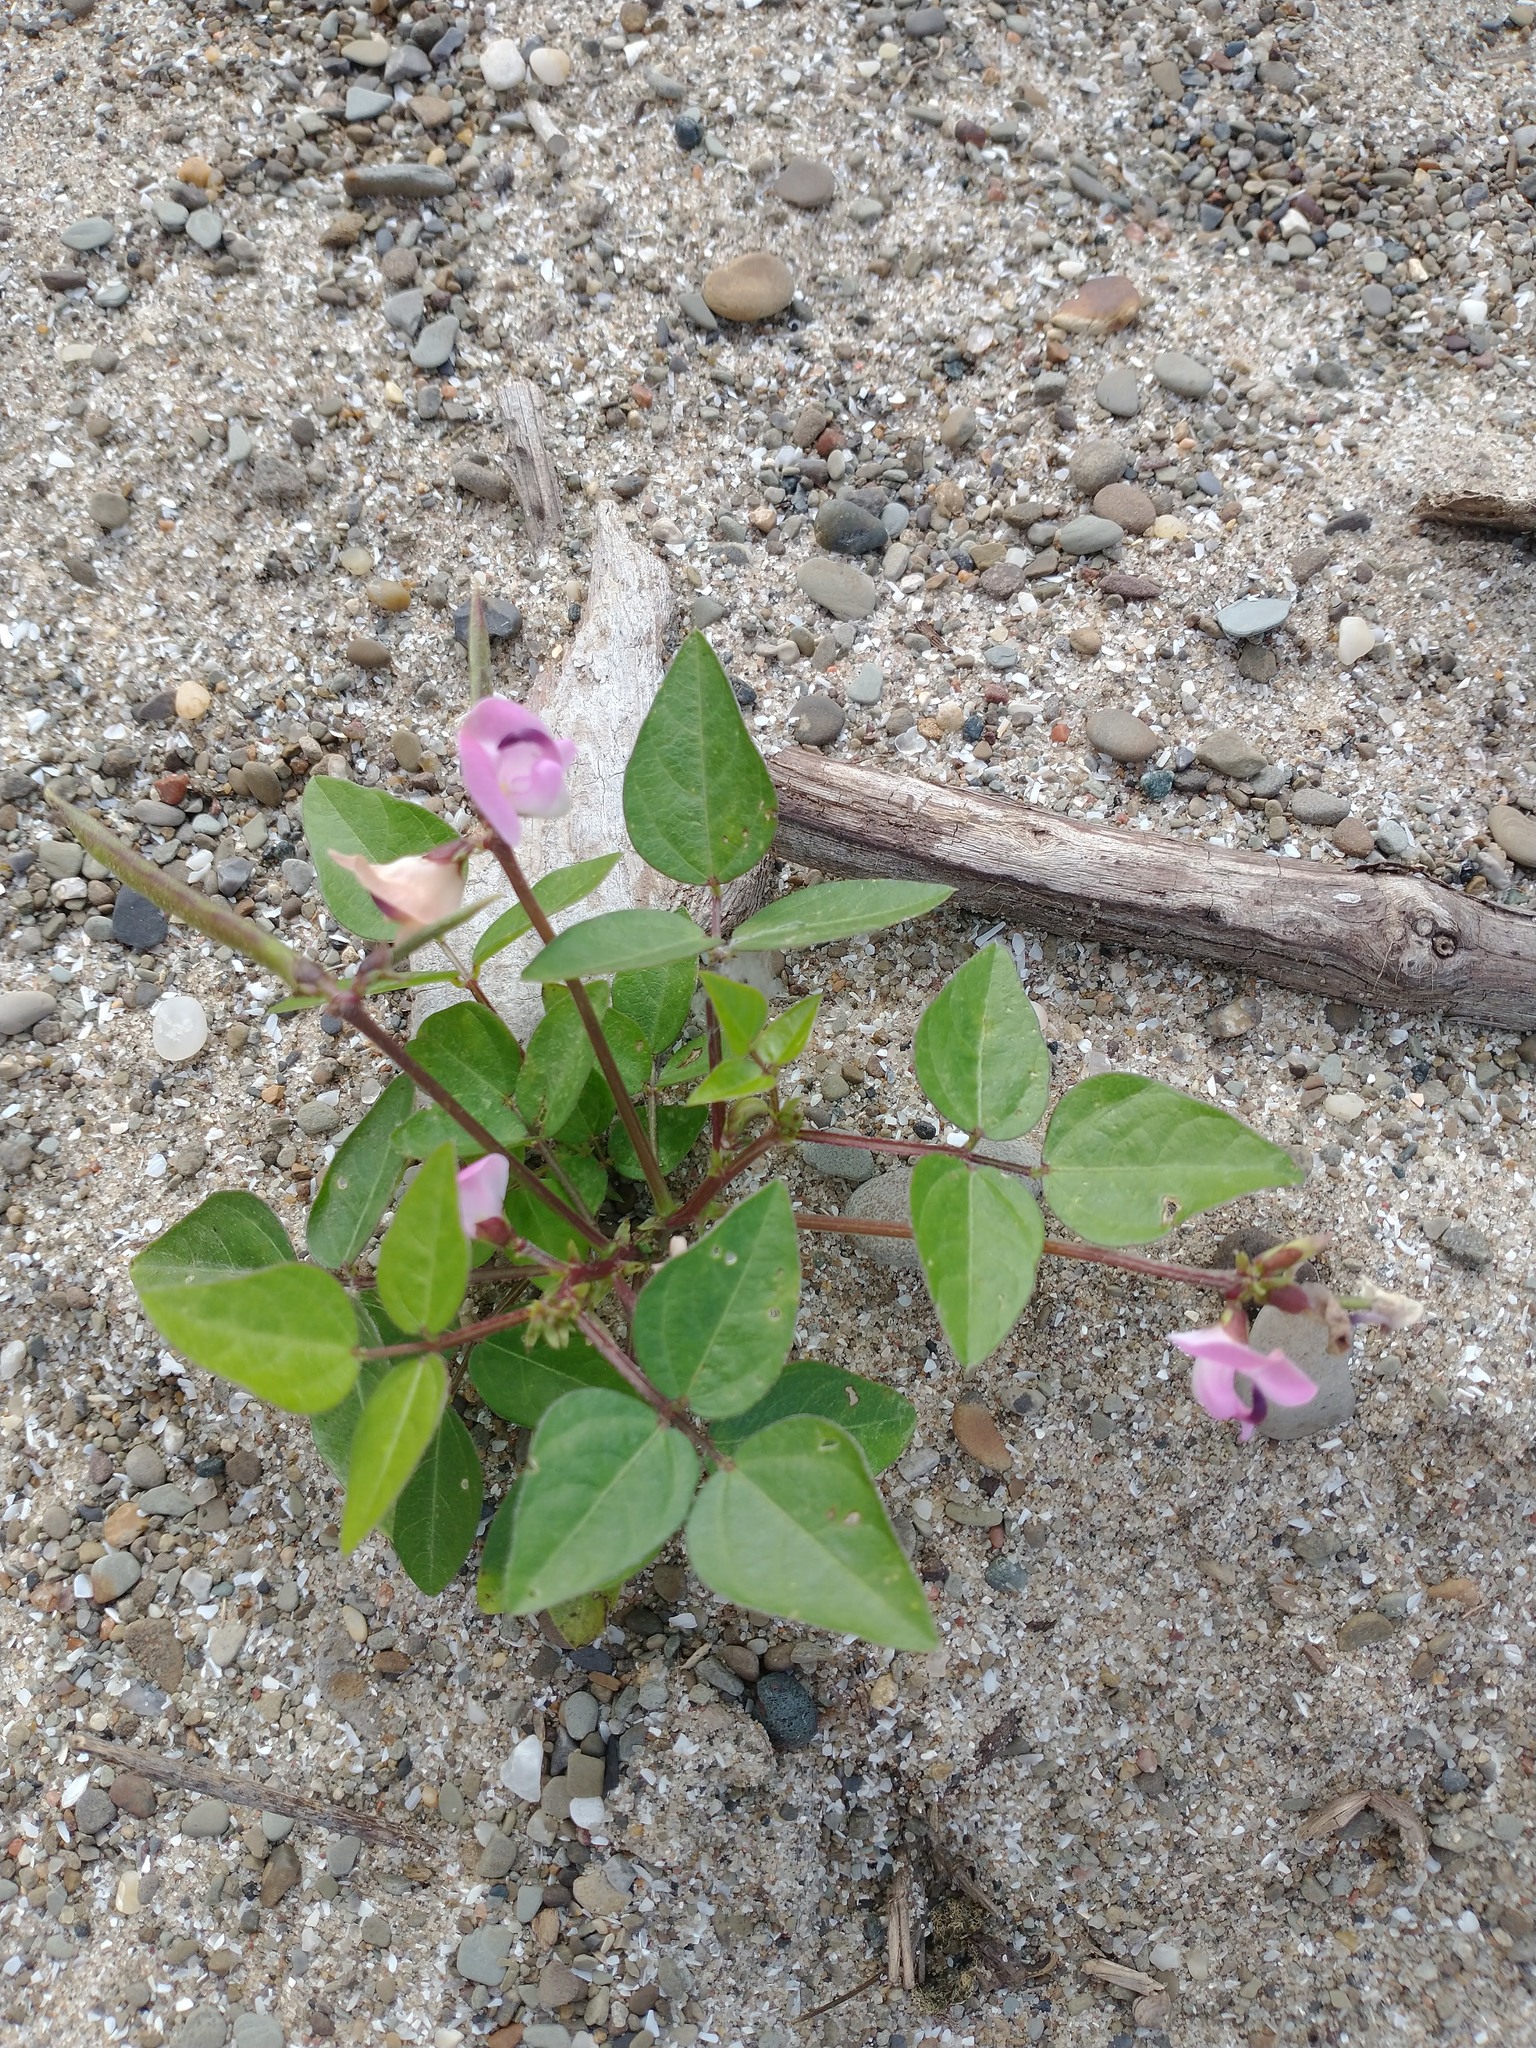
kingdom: Plantae
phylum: Tracheophyta
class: Magnoliopsida
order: Fabales
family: Fabaceae
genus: Strophostyles
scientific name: Strophostyles helvola
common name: Trailing wild bean
